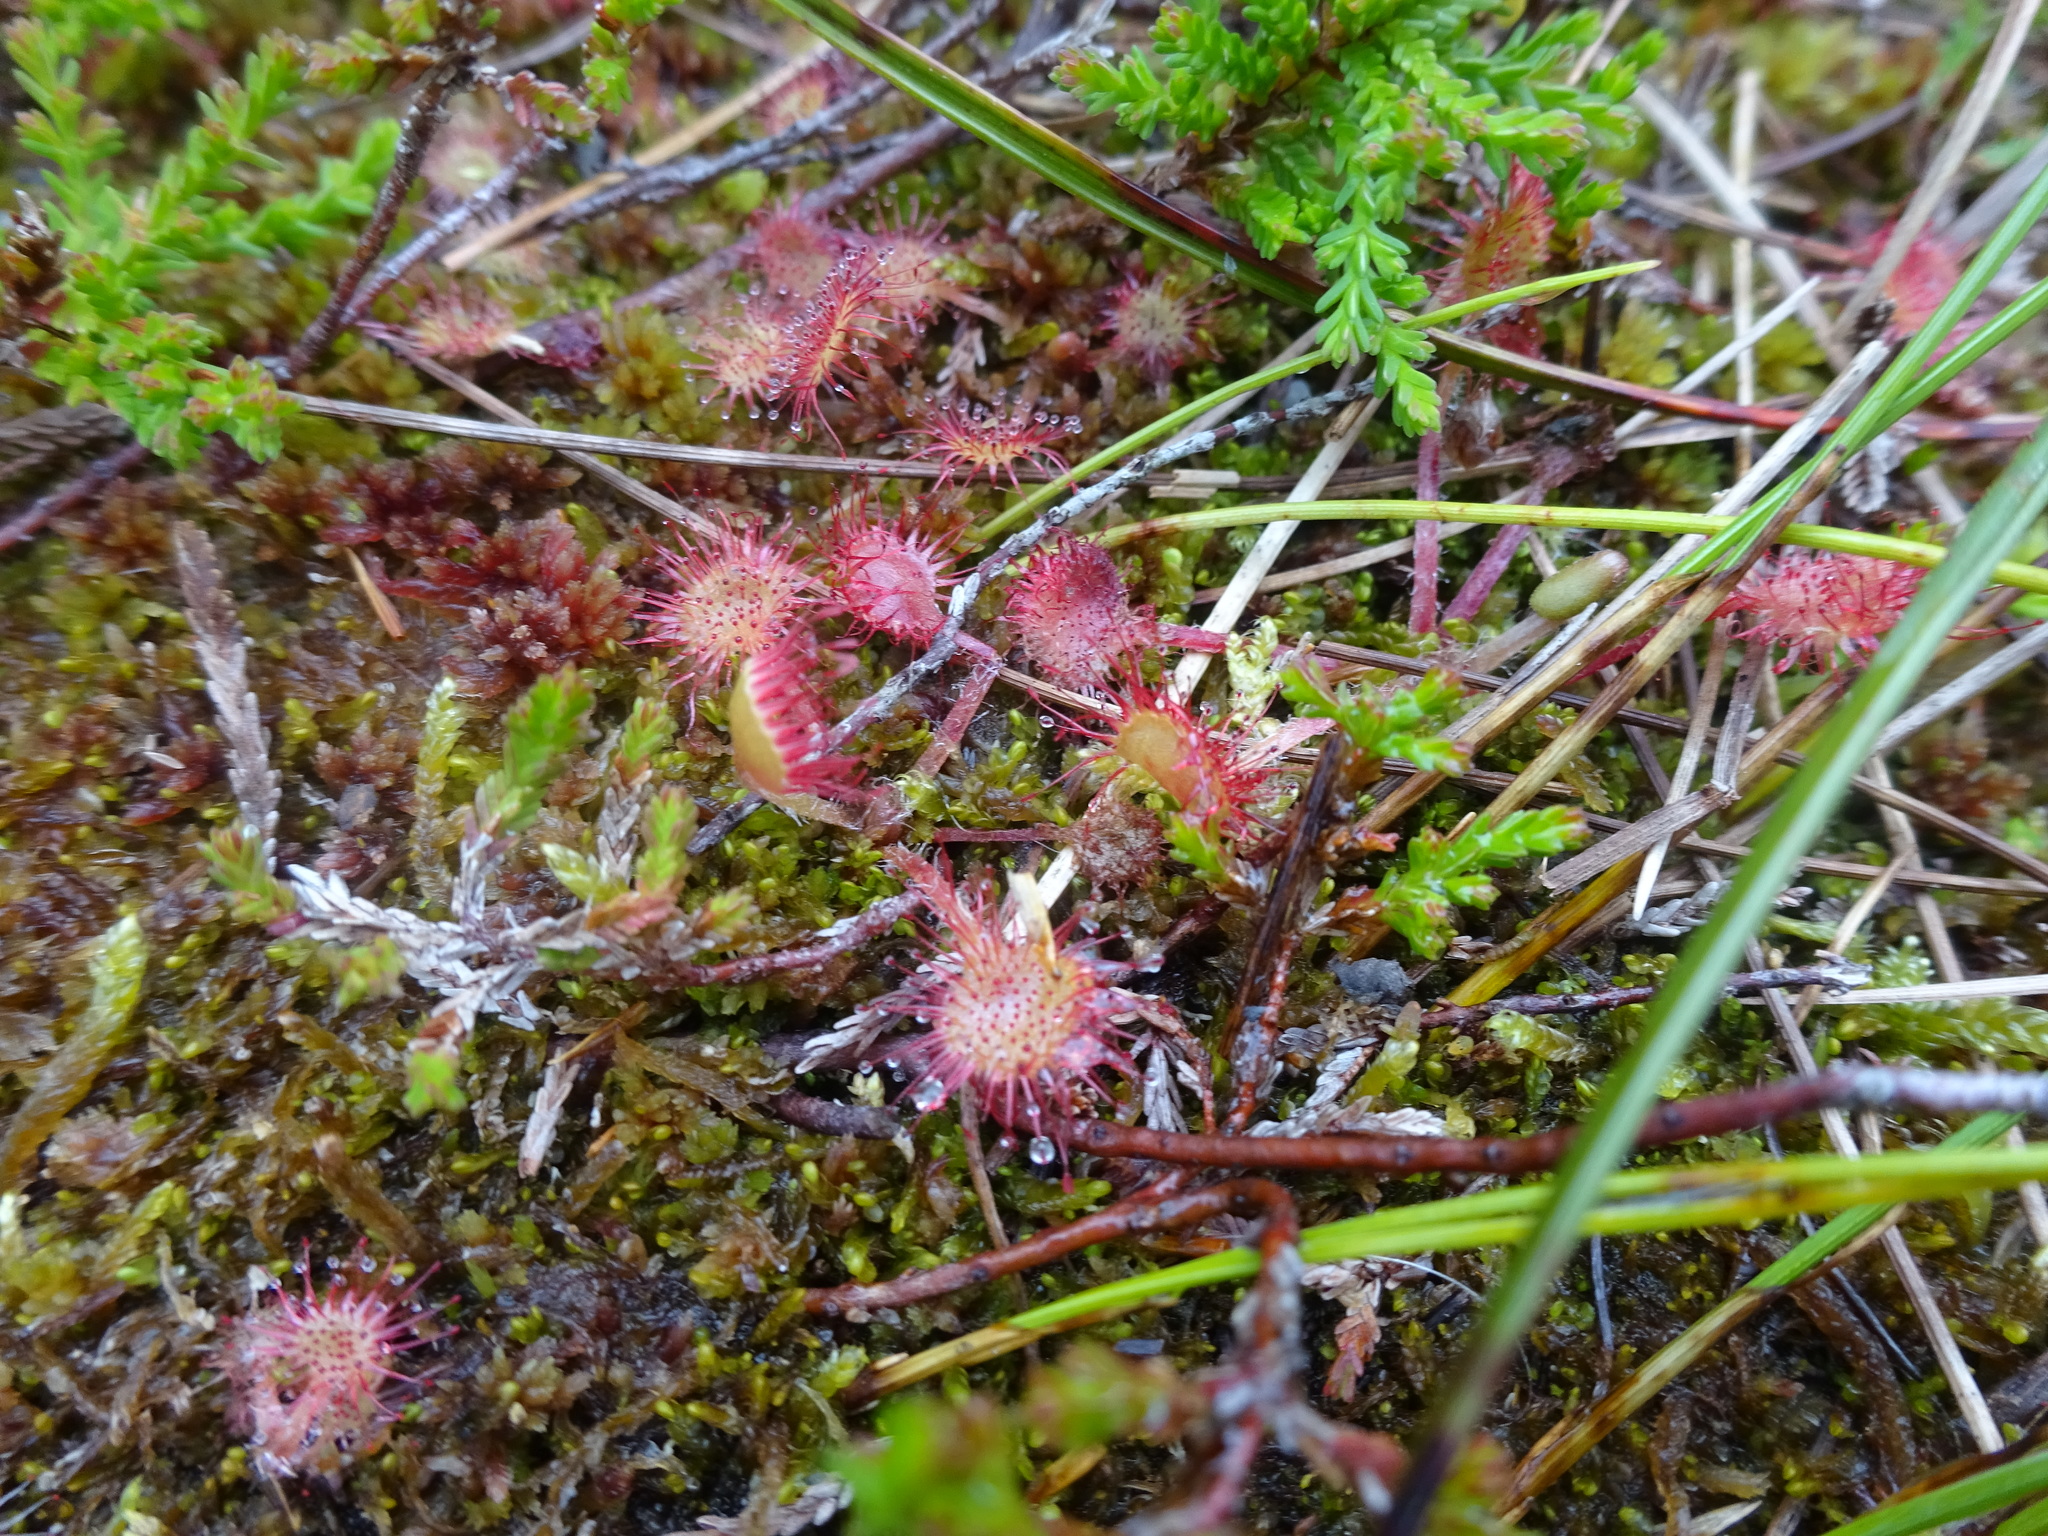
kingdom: Plantae
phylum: Tracheophyta
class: Magnoliopsida
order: Caryophyllales
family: Droseraceae
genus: Drosera
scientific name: Drosera rotundifolia
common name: Round-leaved sundew
